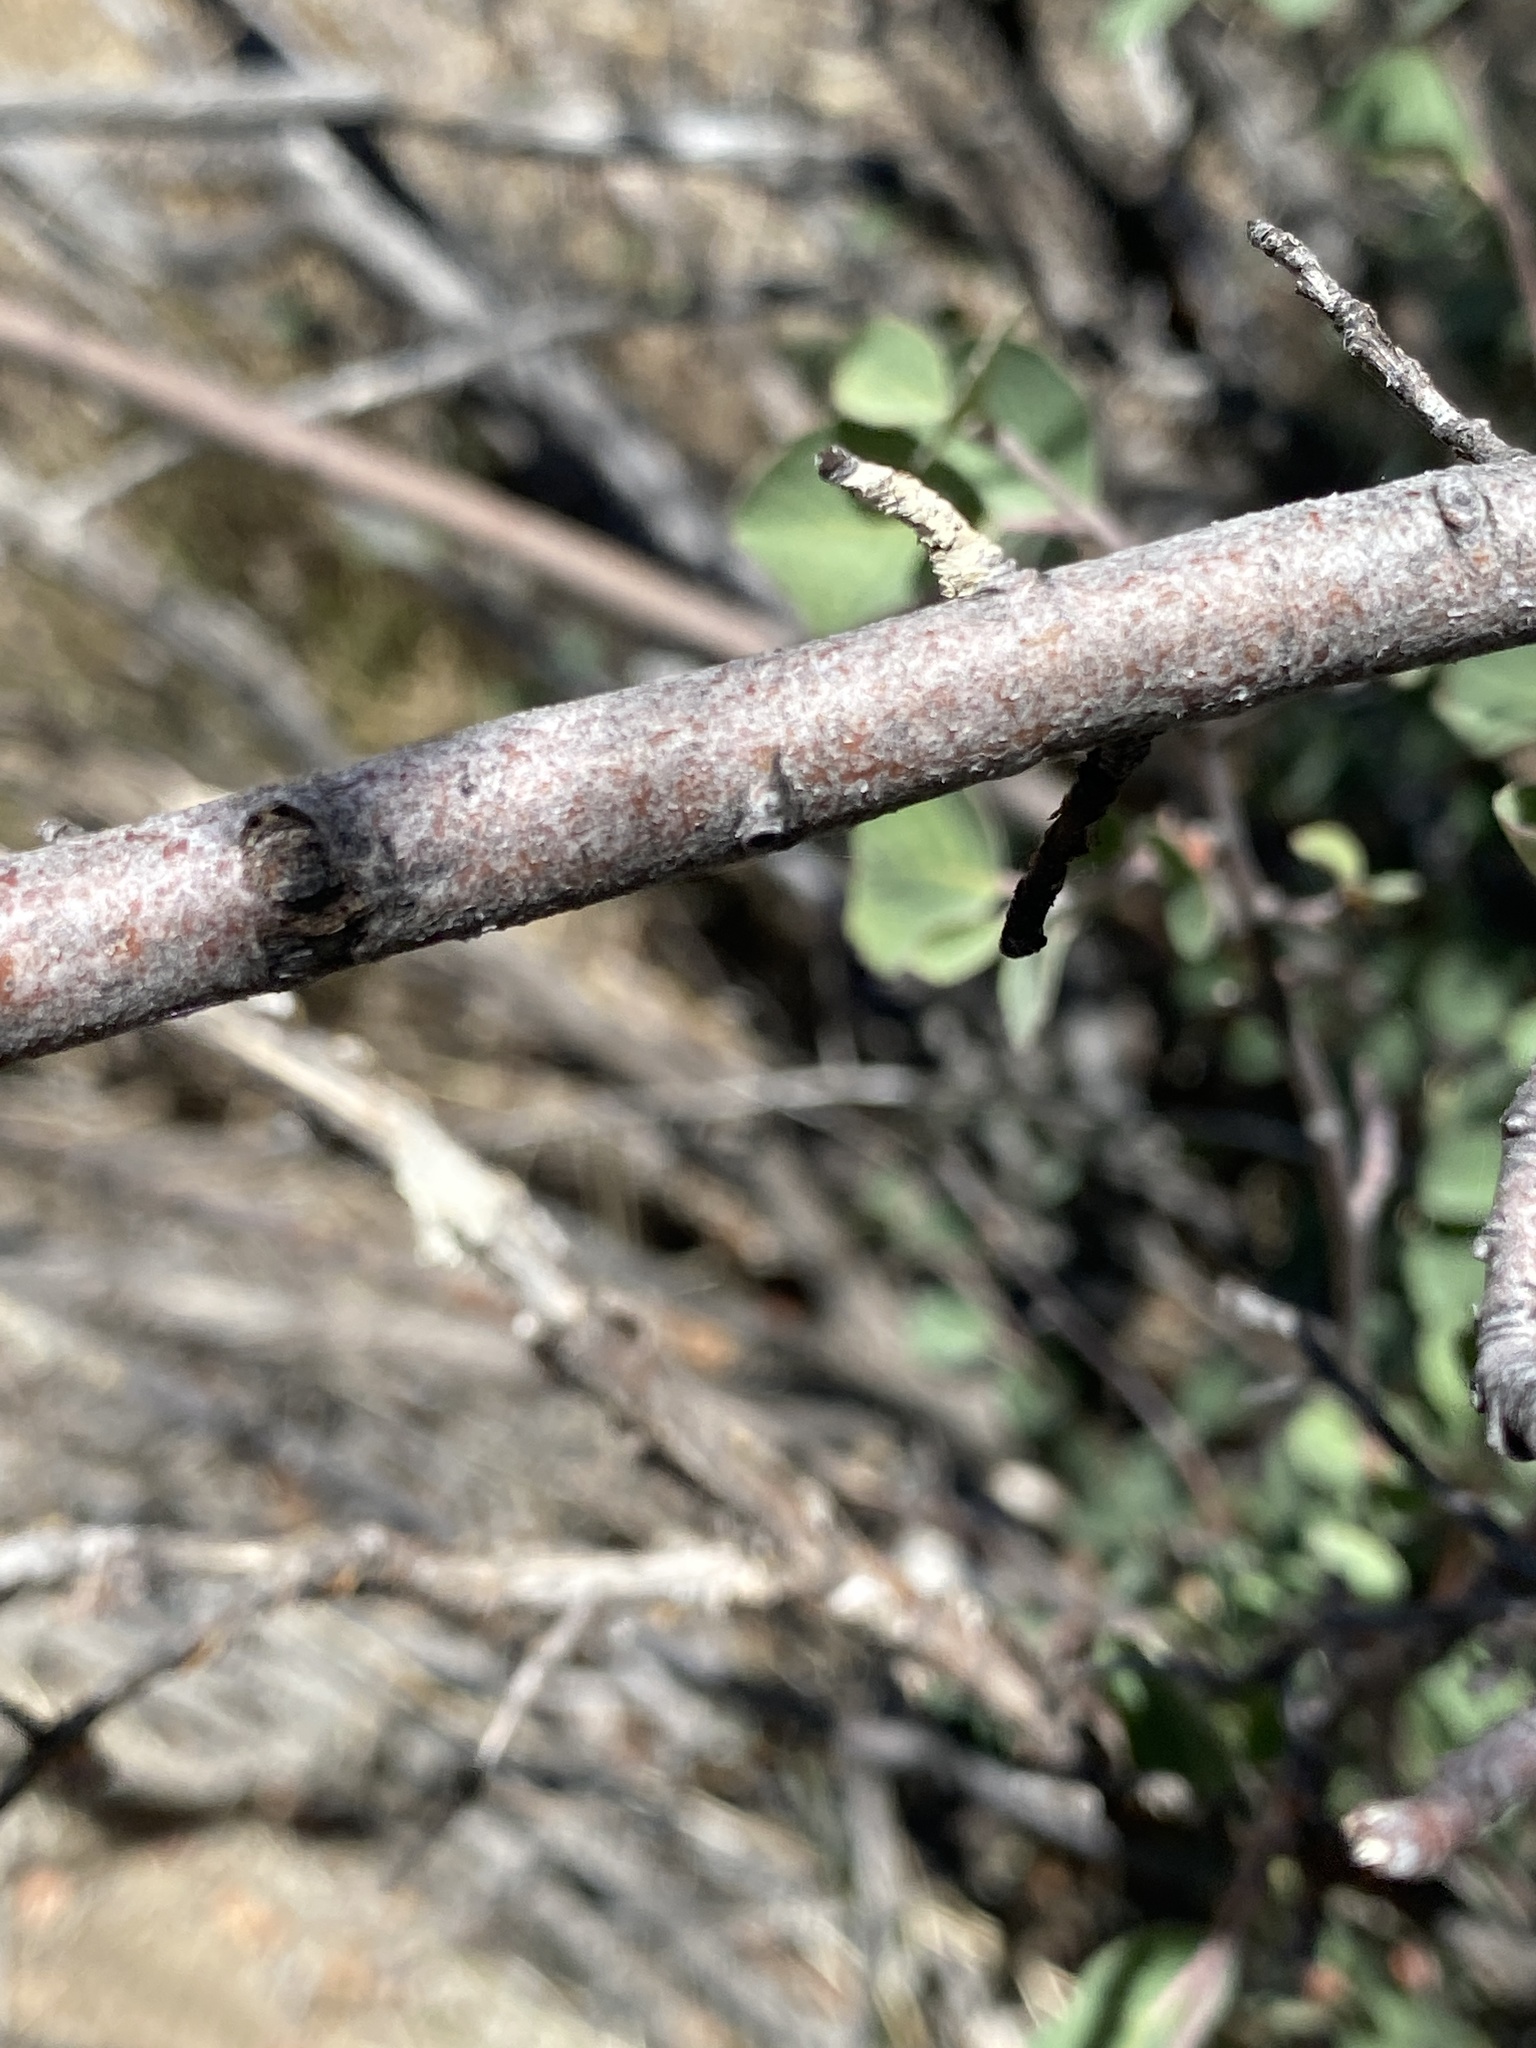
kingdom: Plantae
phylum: Tracheophyta
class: Magnoliopsida
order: Rosales
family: Rosaceae
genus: Amelanchier
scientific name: Amelanchier utahensis
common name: Utah serviceberry
